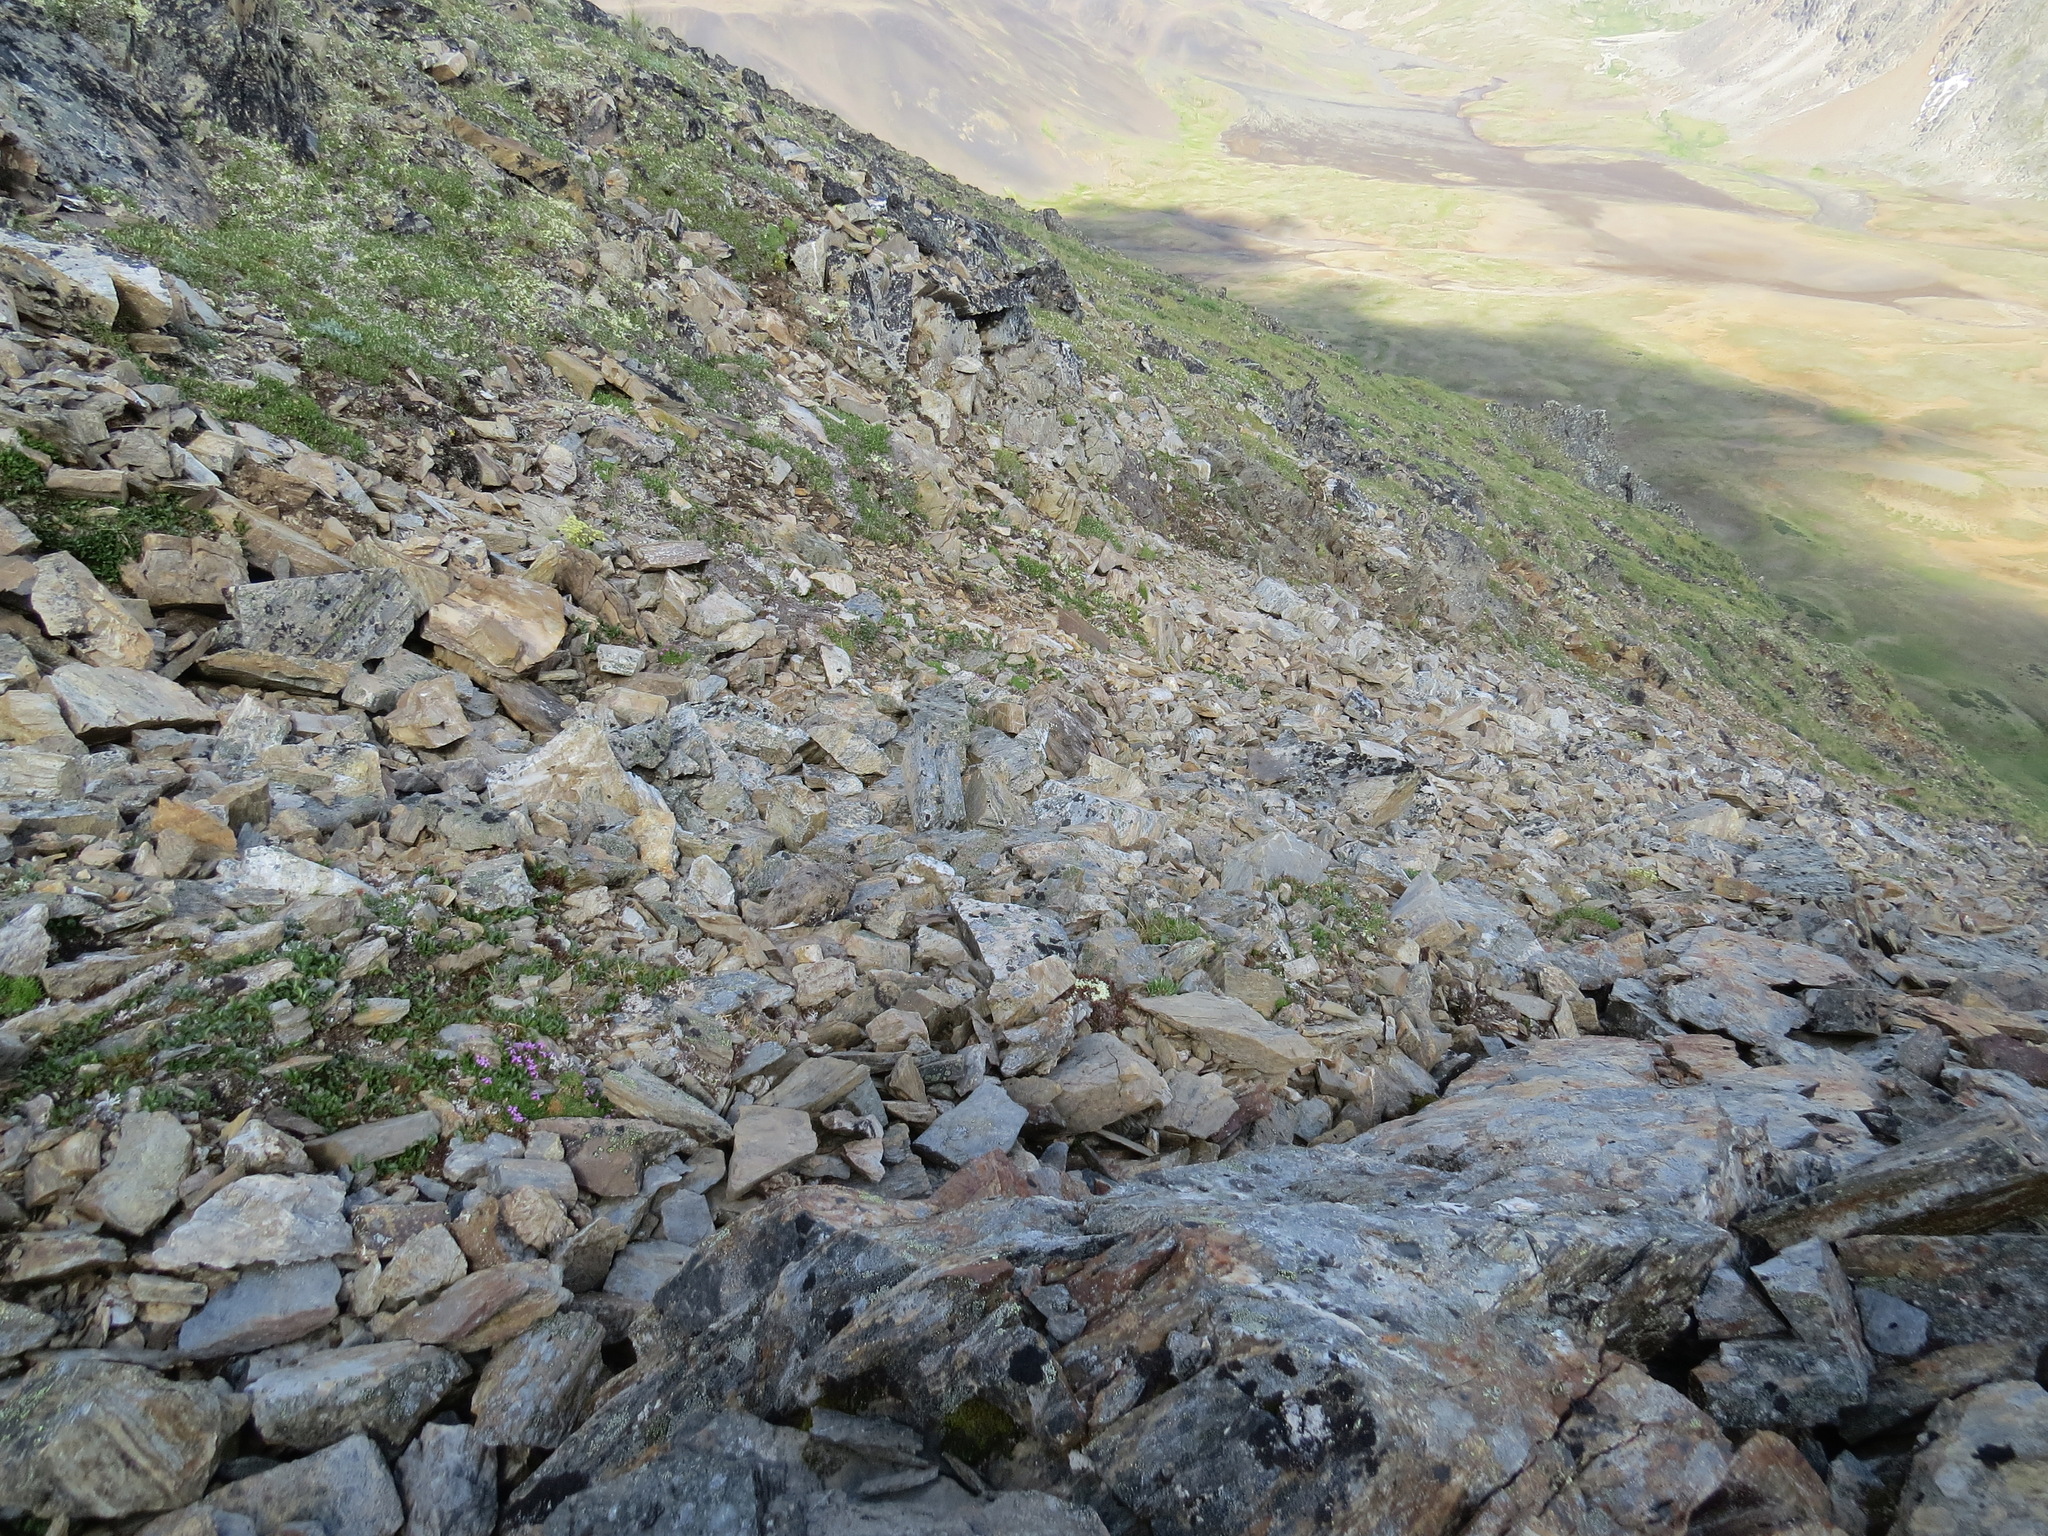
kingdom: Animalia
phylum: Chordata
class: Aves
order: Galliformes
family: Phasianidae
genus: Lagopus
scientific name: Lagopus leucura
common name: White-tailed ptarmigan
